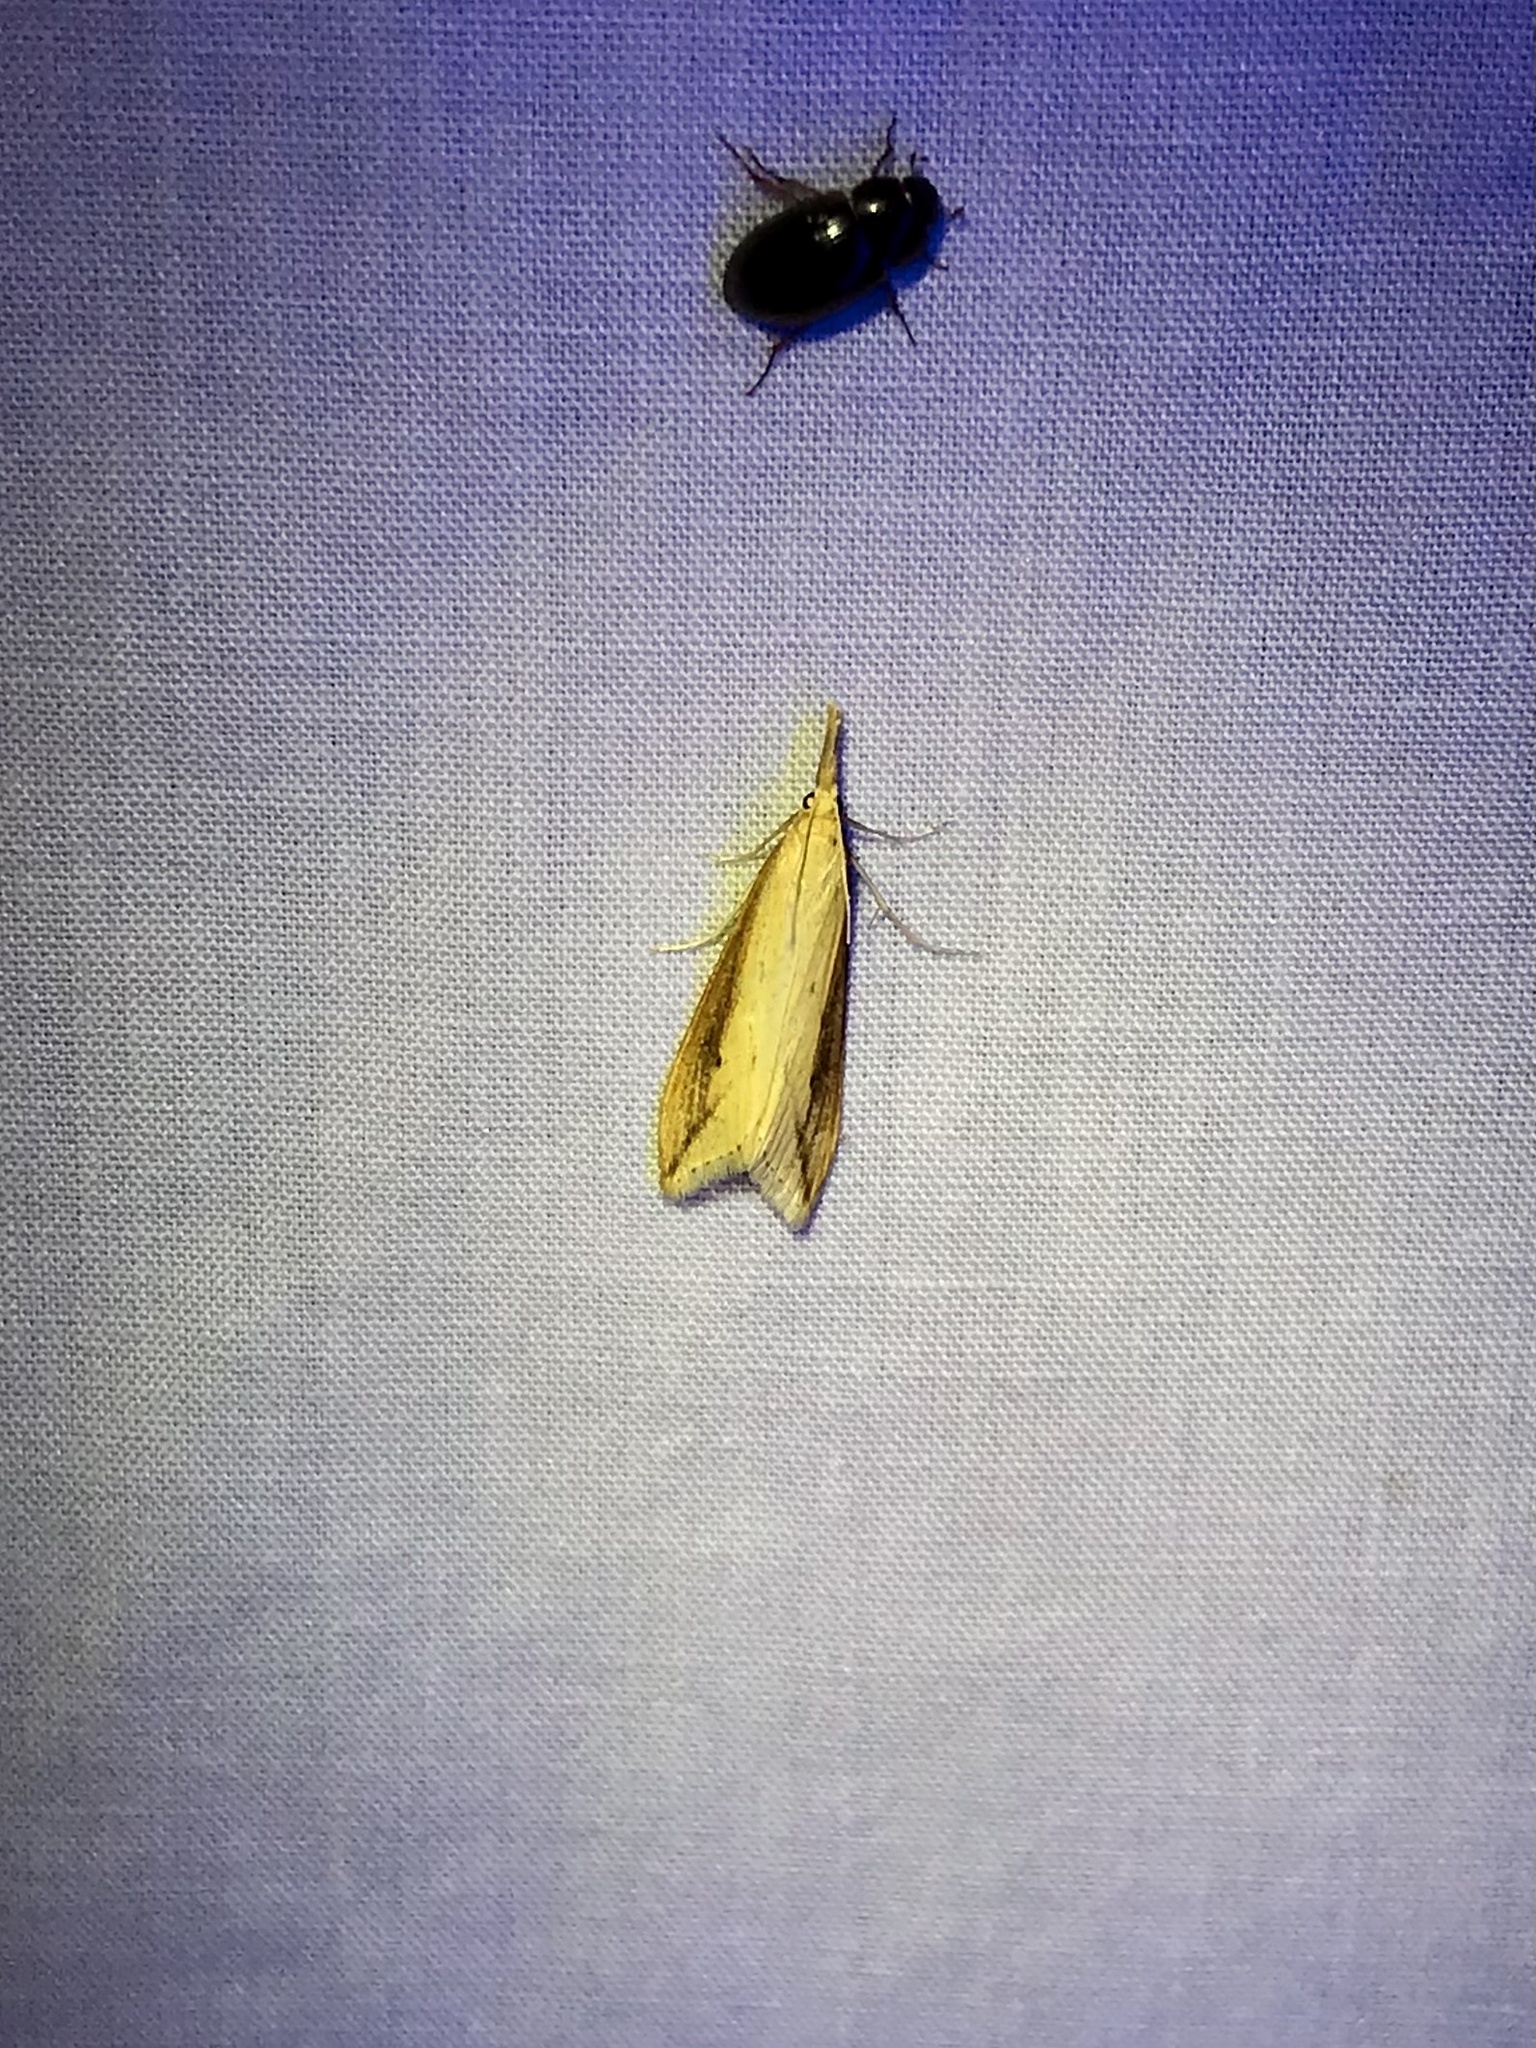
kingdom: Animalia
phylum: Arthropoda
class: Insecta
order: Lepidoptera
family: Crambidae
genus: Donacaula
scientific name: Donacaula melinellus
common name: Delightful donacaula moth
